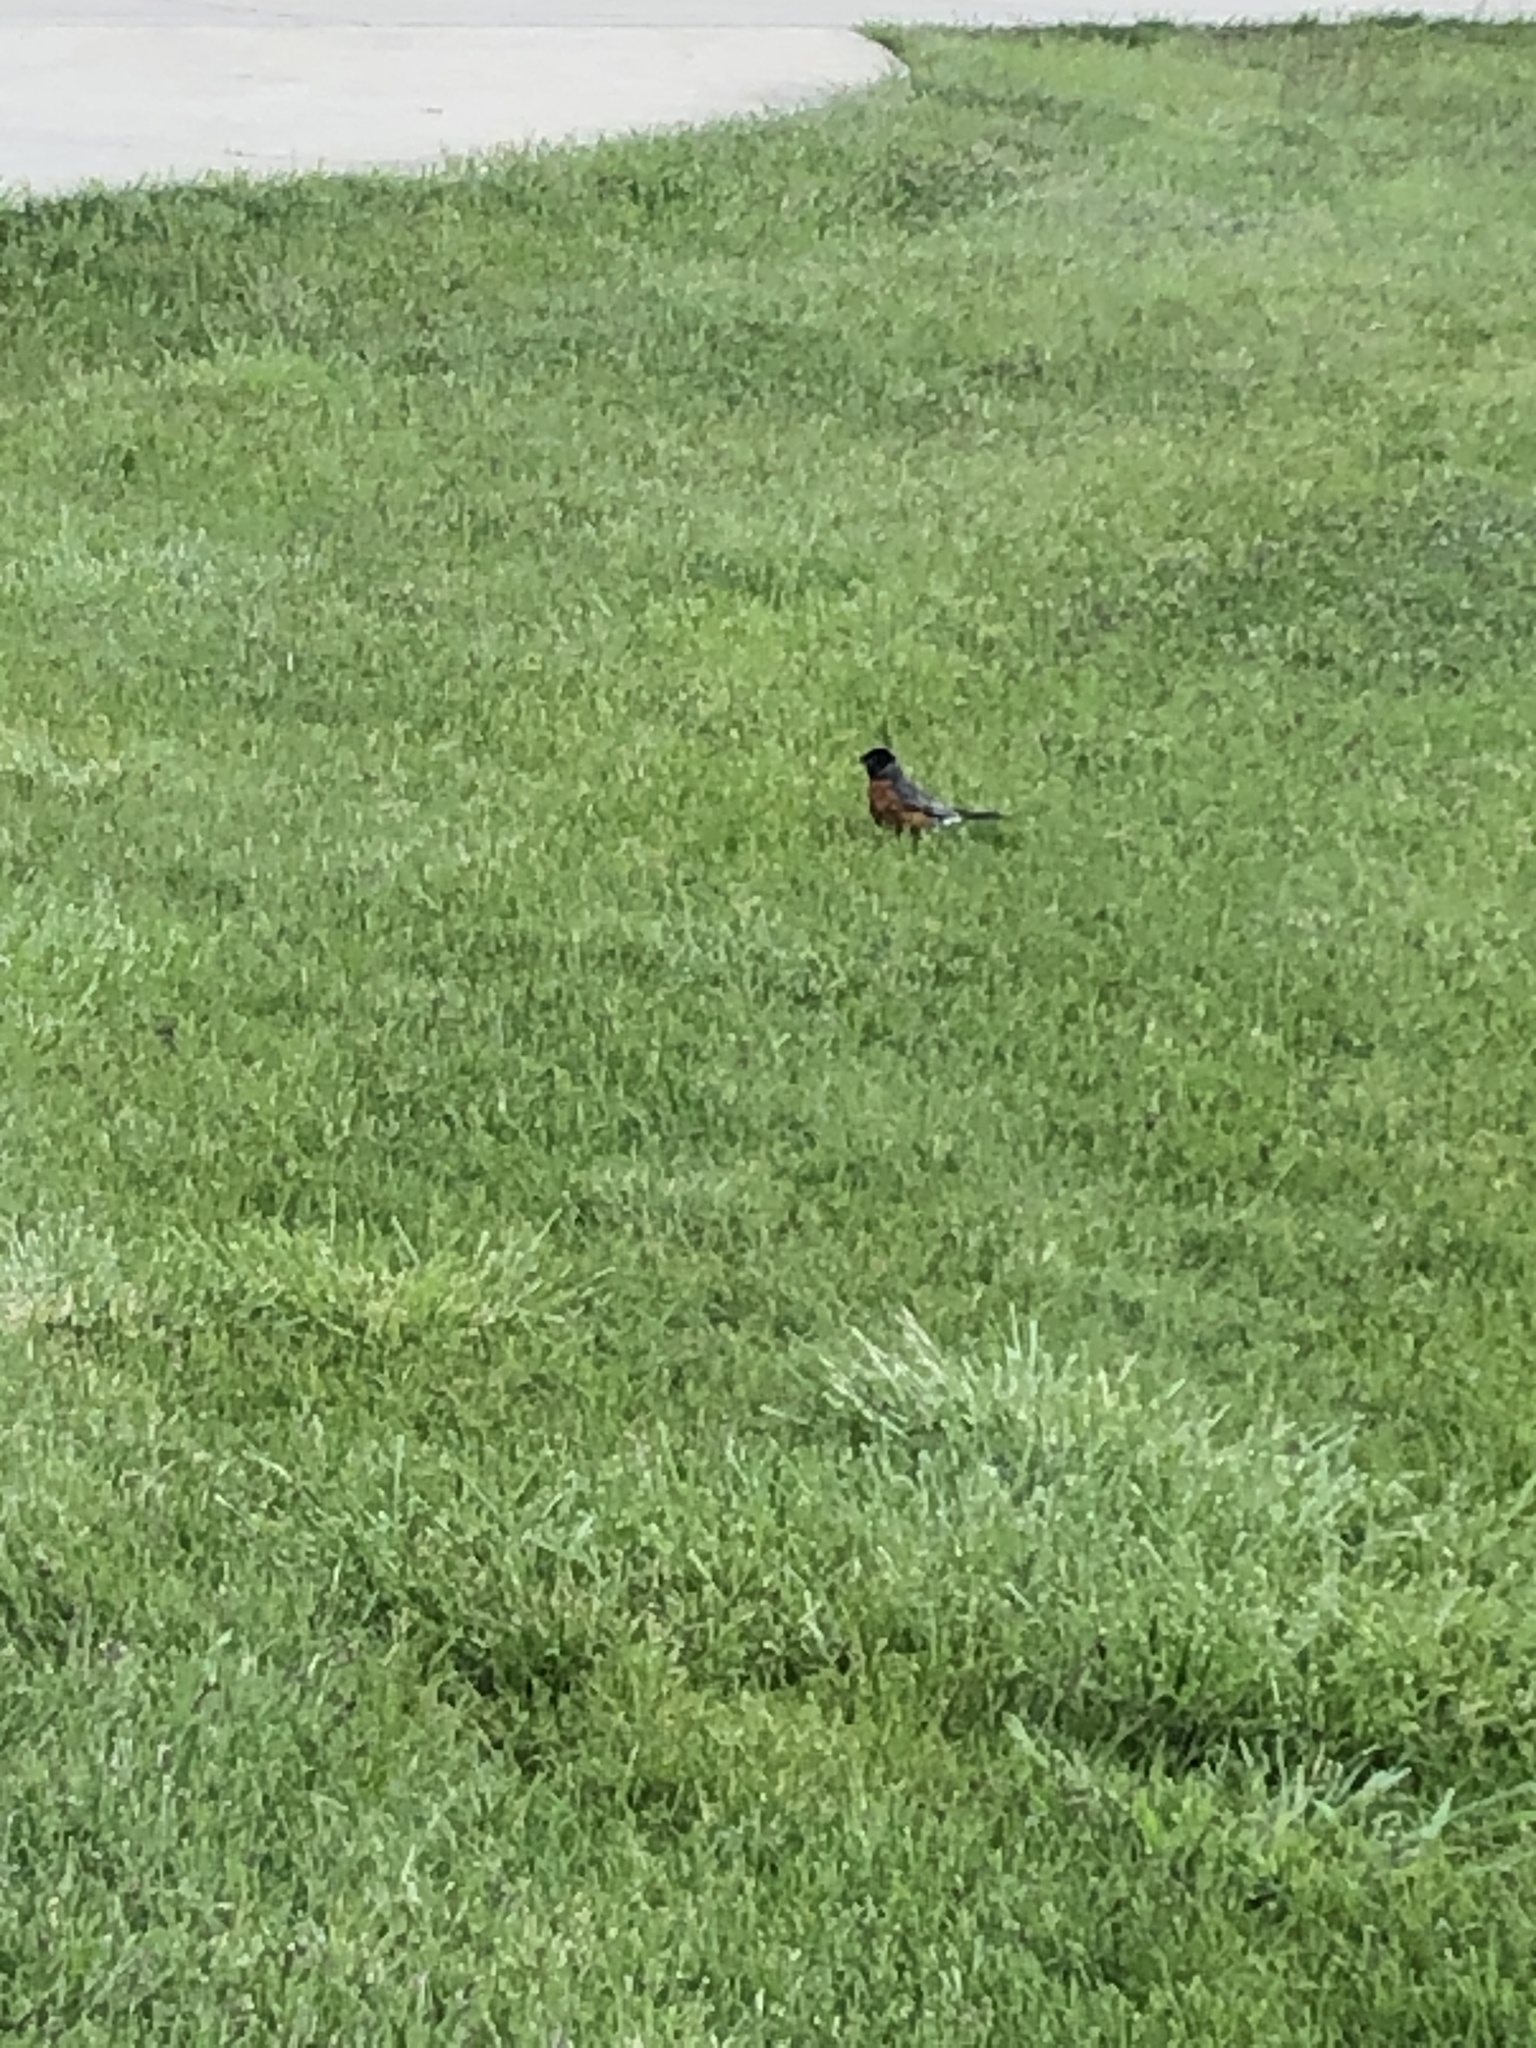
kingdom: Animalia
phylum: Chordata
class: Aves
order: Passeriformes
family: Turdidae
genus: Turdus
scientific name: Turdus migratorius
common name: American robin
